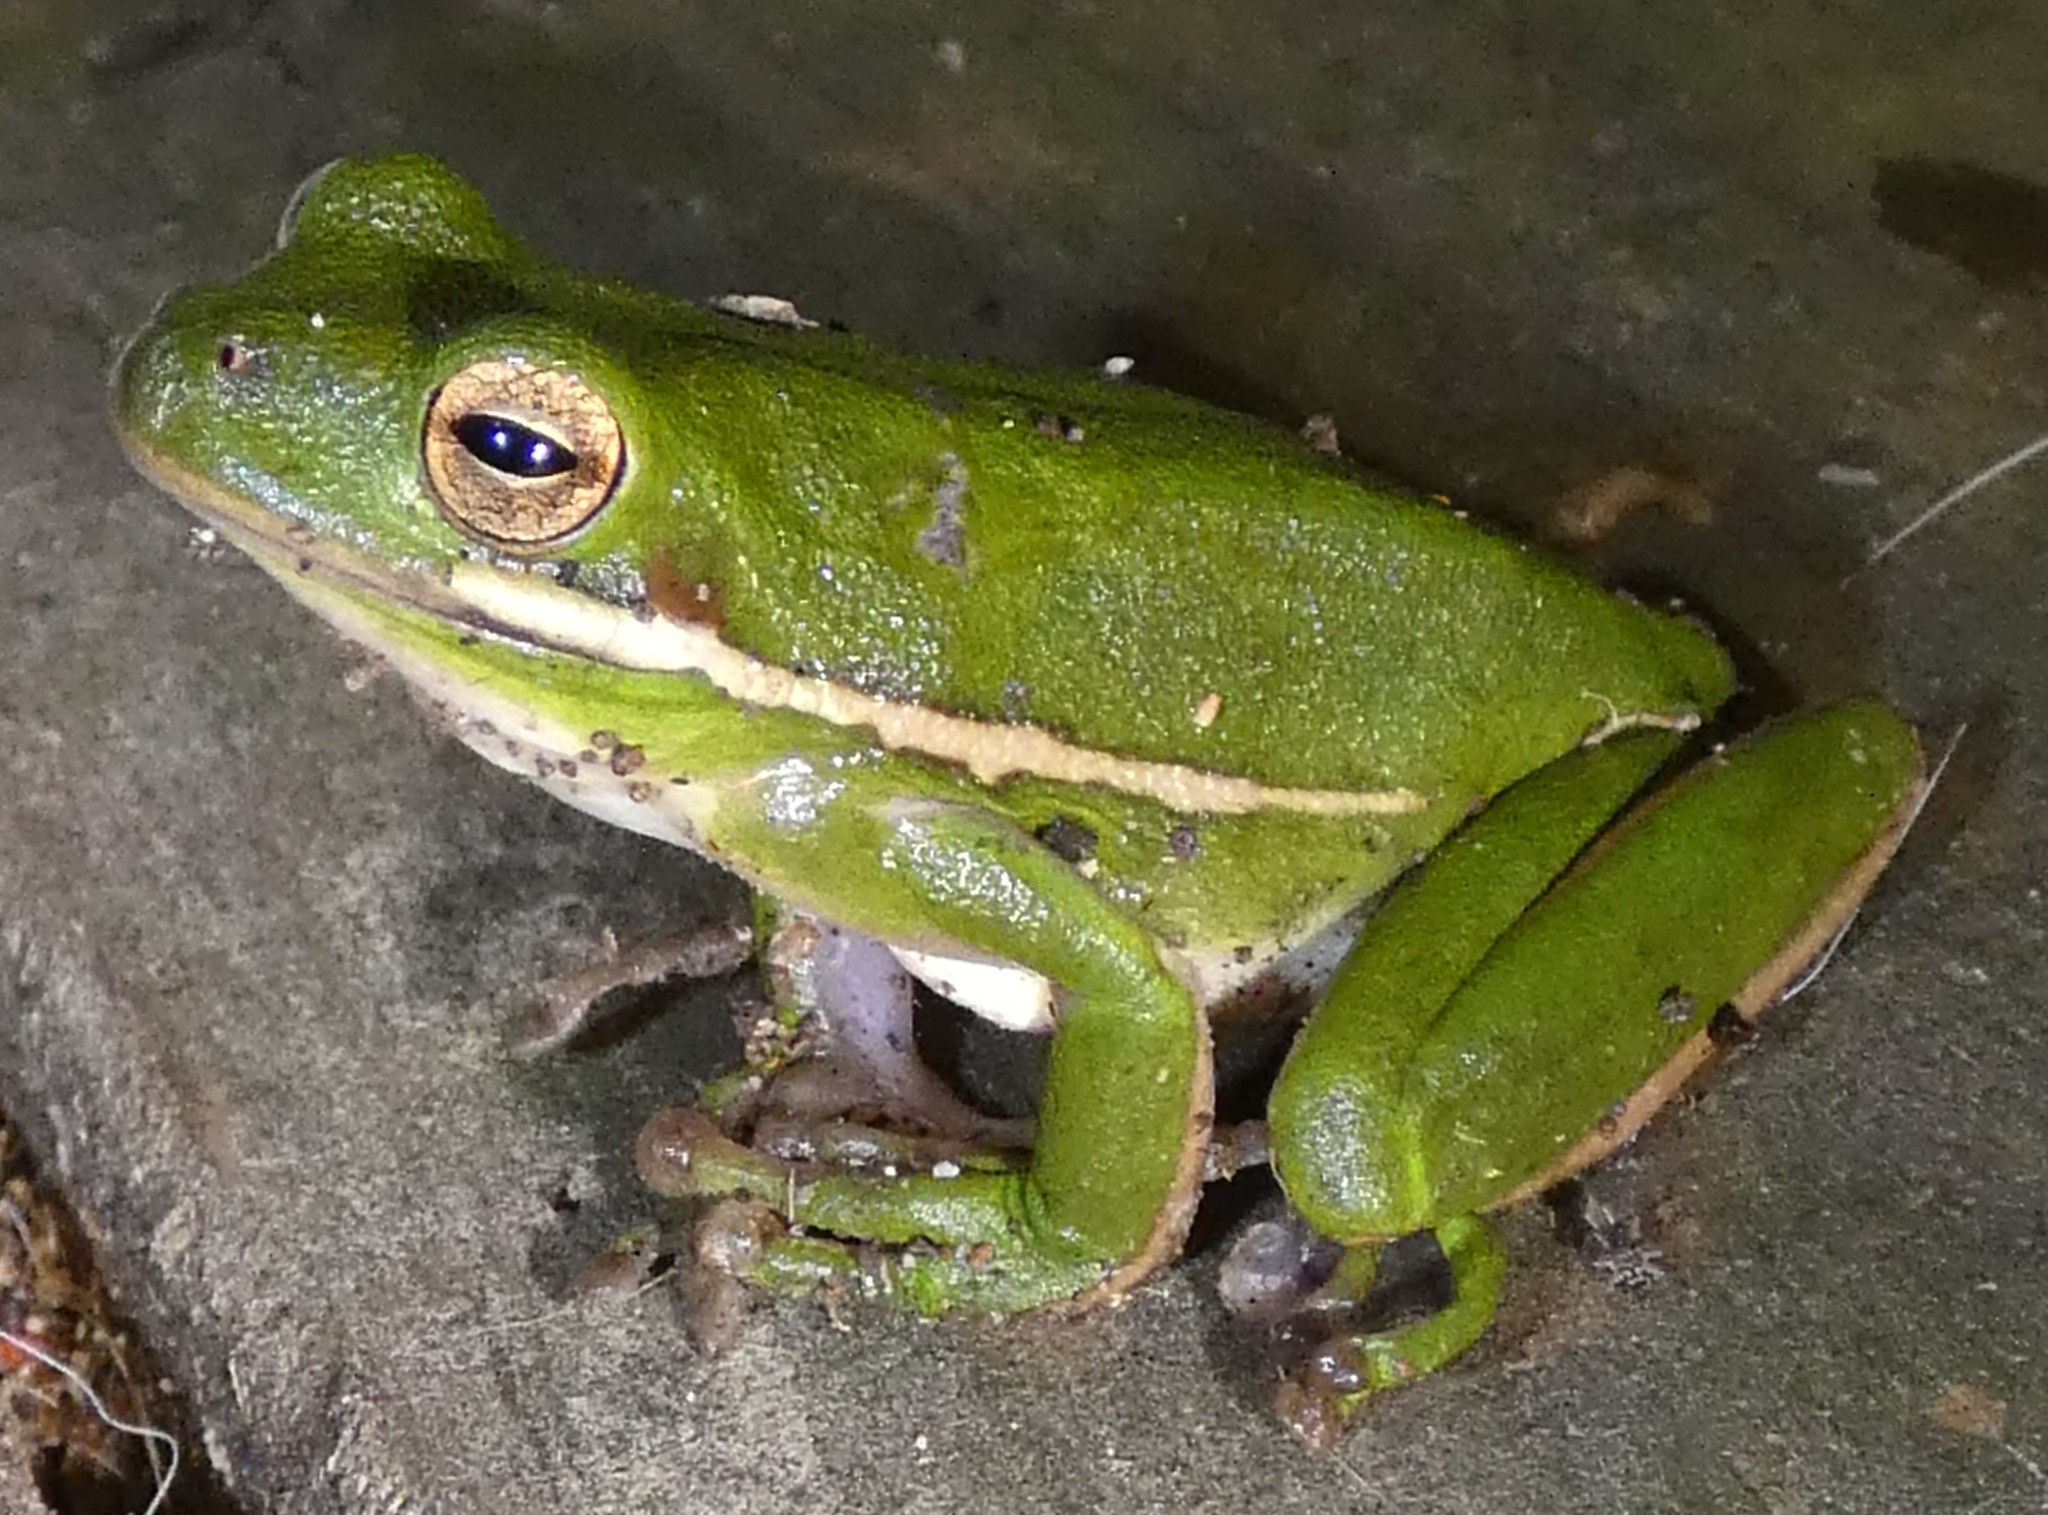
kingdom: Animalia
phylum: Chordata
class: Amphibia
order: Anura
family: Hylidae
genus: Dryophytes
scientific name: Dryophytes cinereus
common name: Green treefrog
